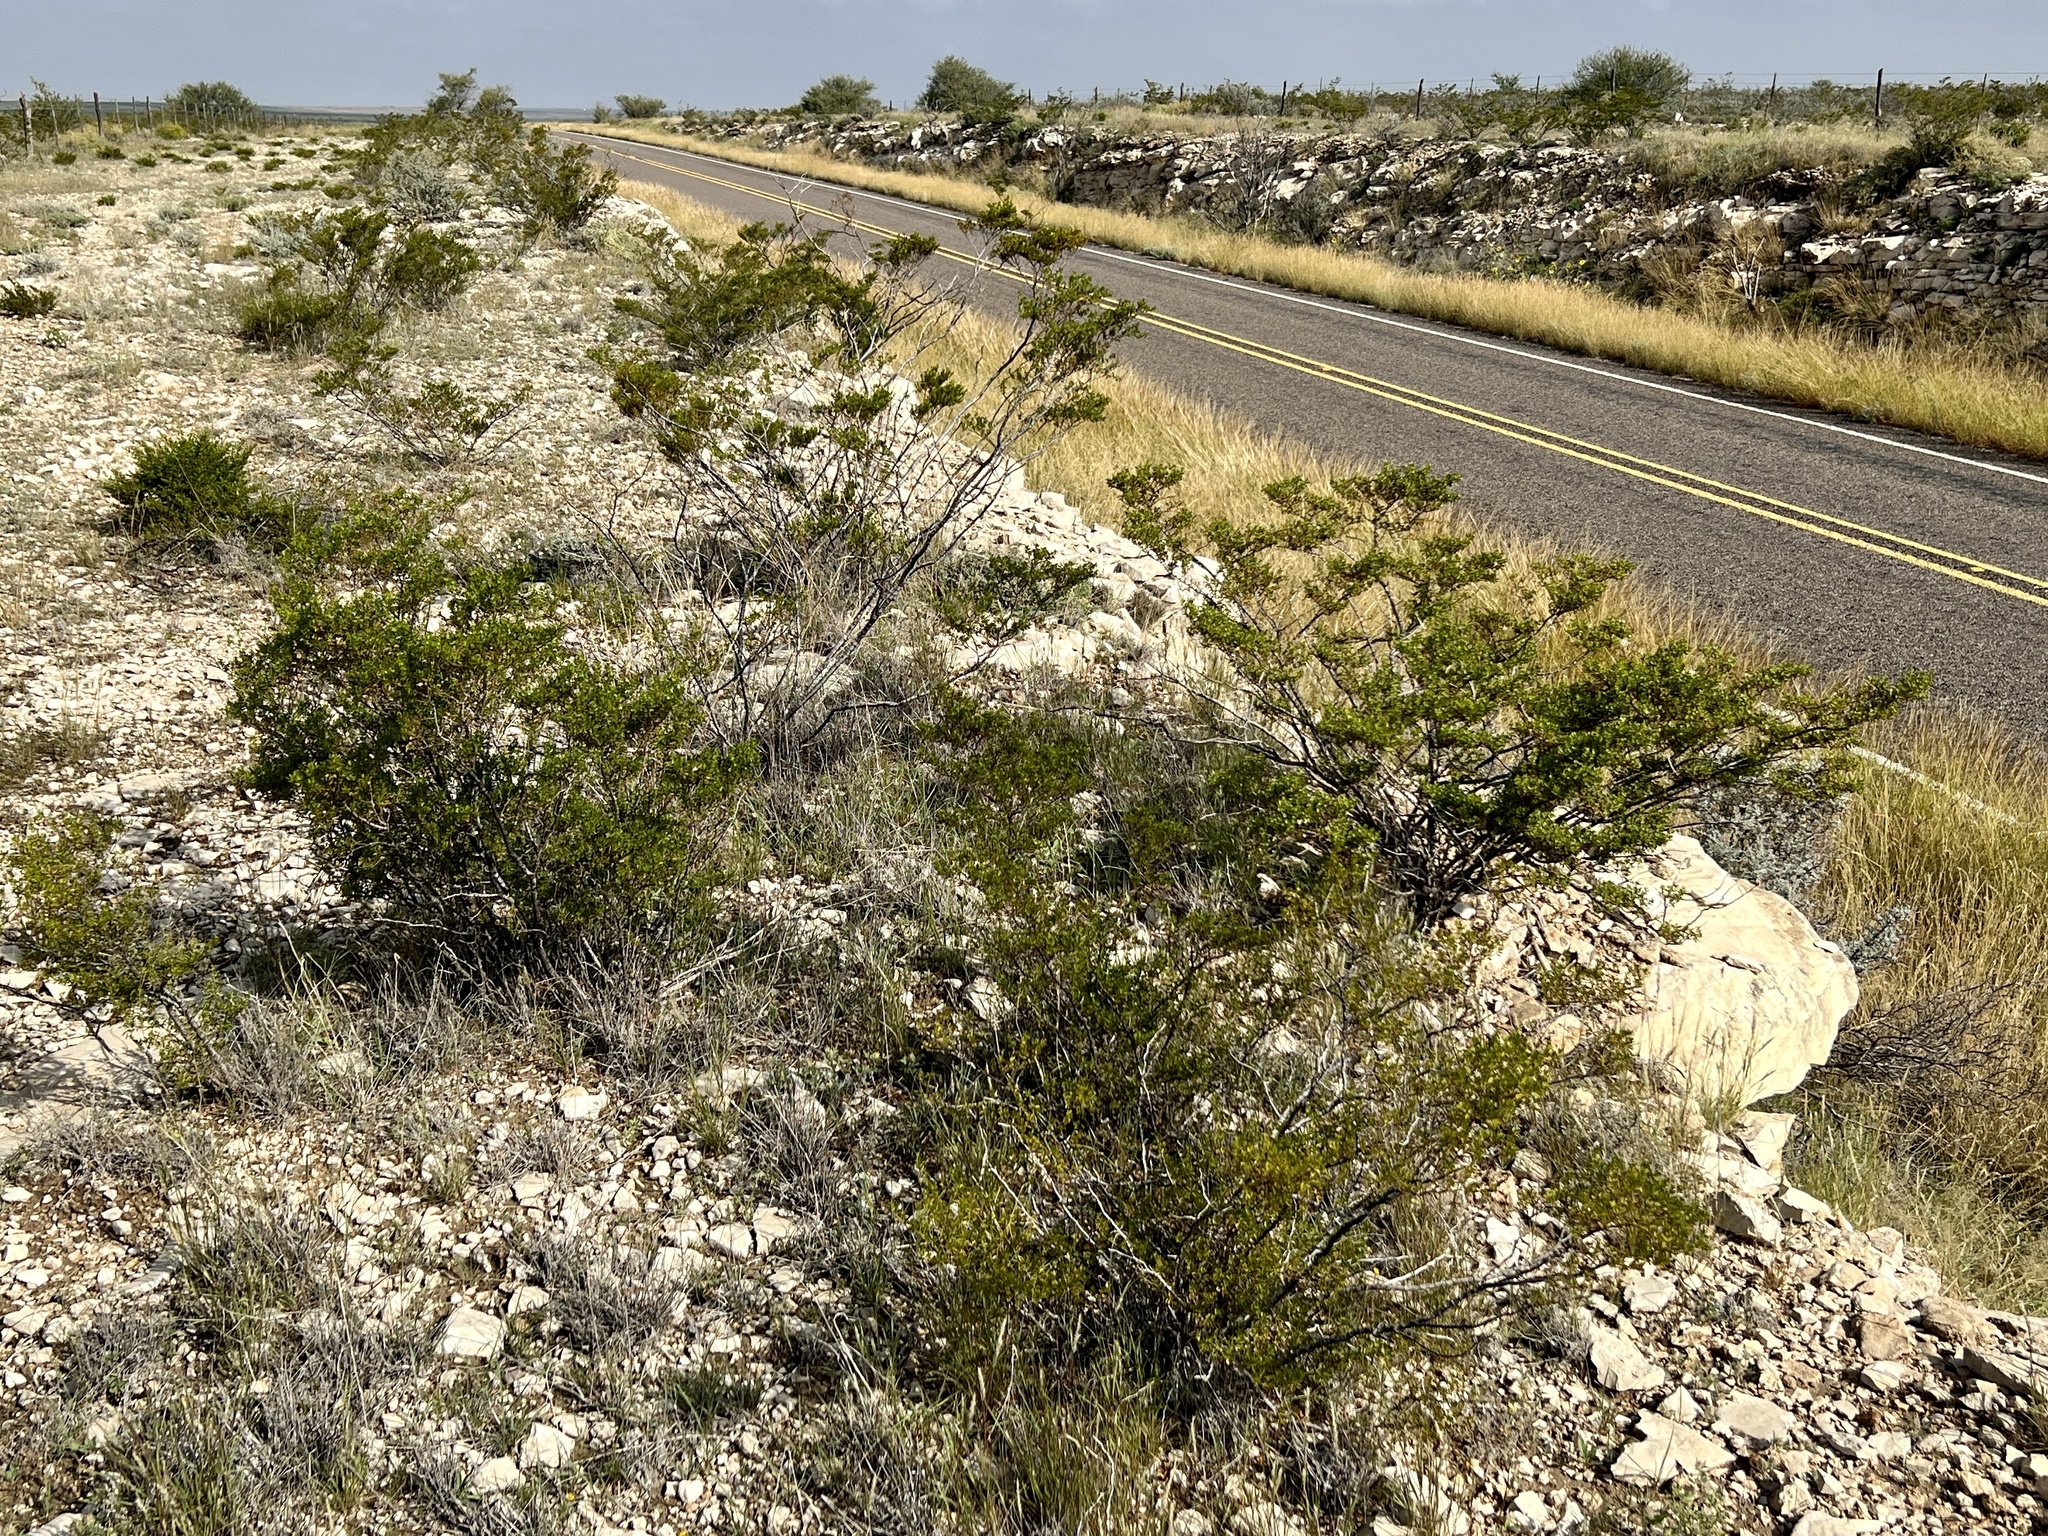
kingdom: Plantae
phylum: Tracheophyta
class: Magnoliopsida
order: Zygophyllales
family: Zygophyllaceae
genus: Larrea
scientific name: Larrea tridentata
